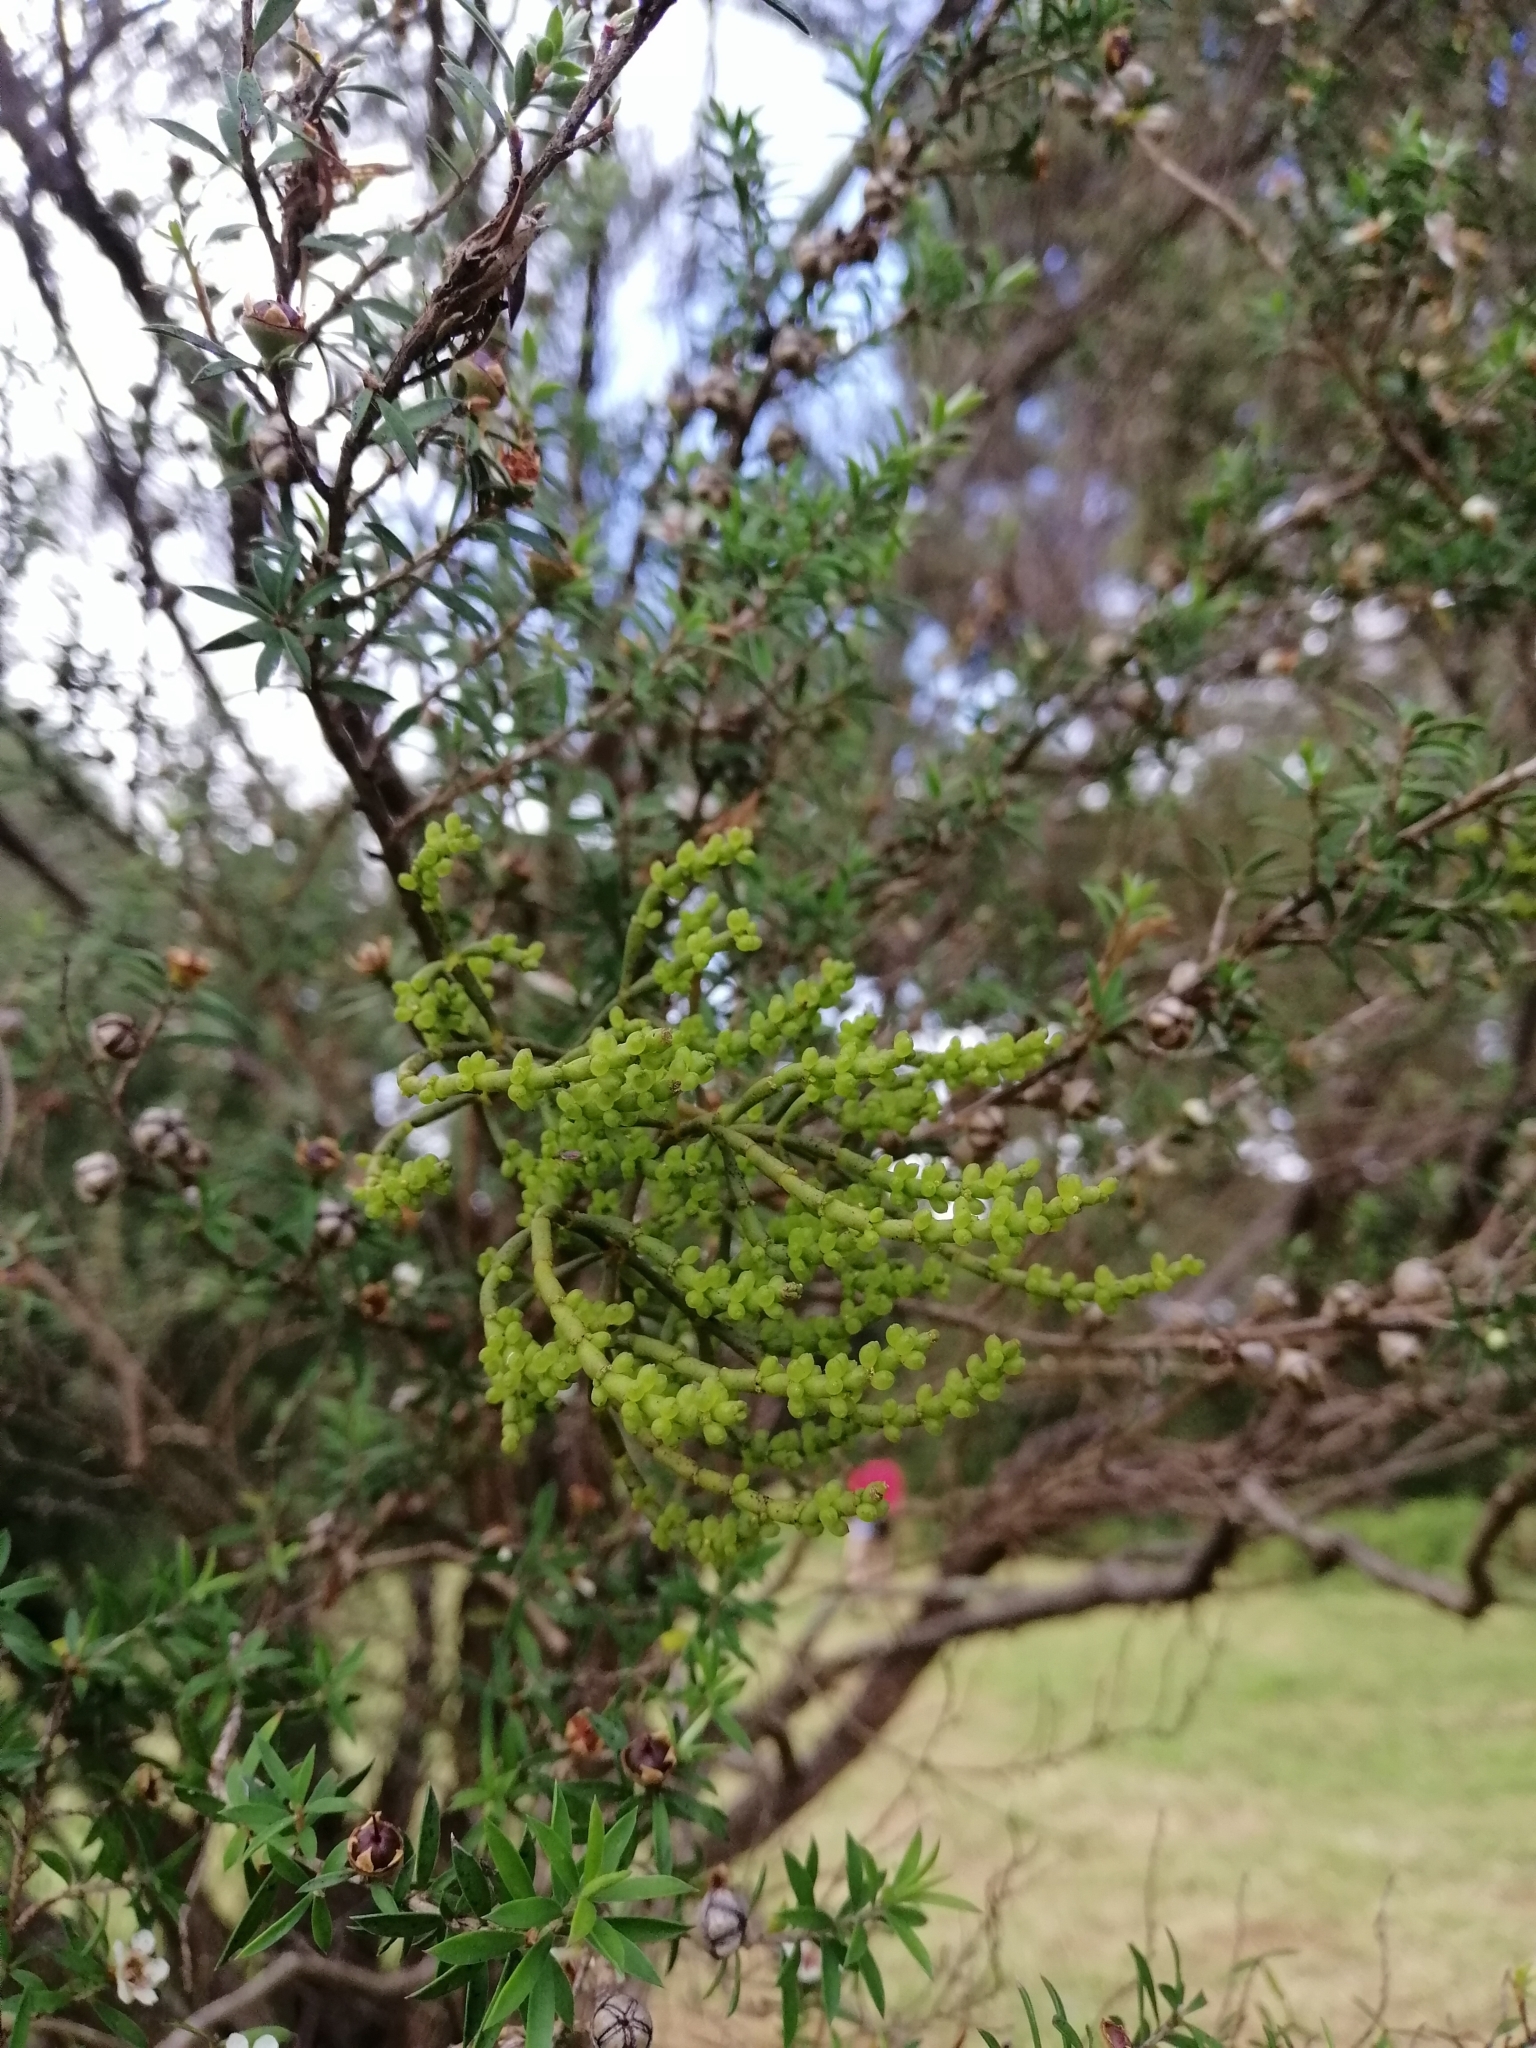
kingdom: Plantae
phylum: Tracheophyta
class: Magnoliopsida
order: Santalales
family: Viscaceae
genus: Korthalsella
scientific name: Korthalsella salicornioides
